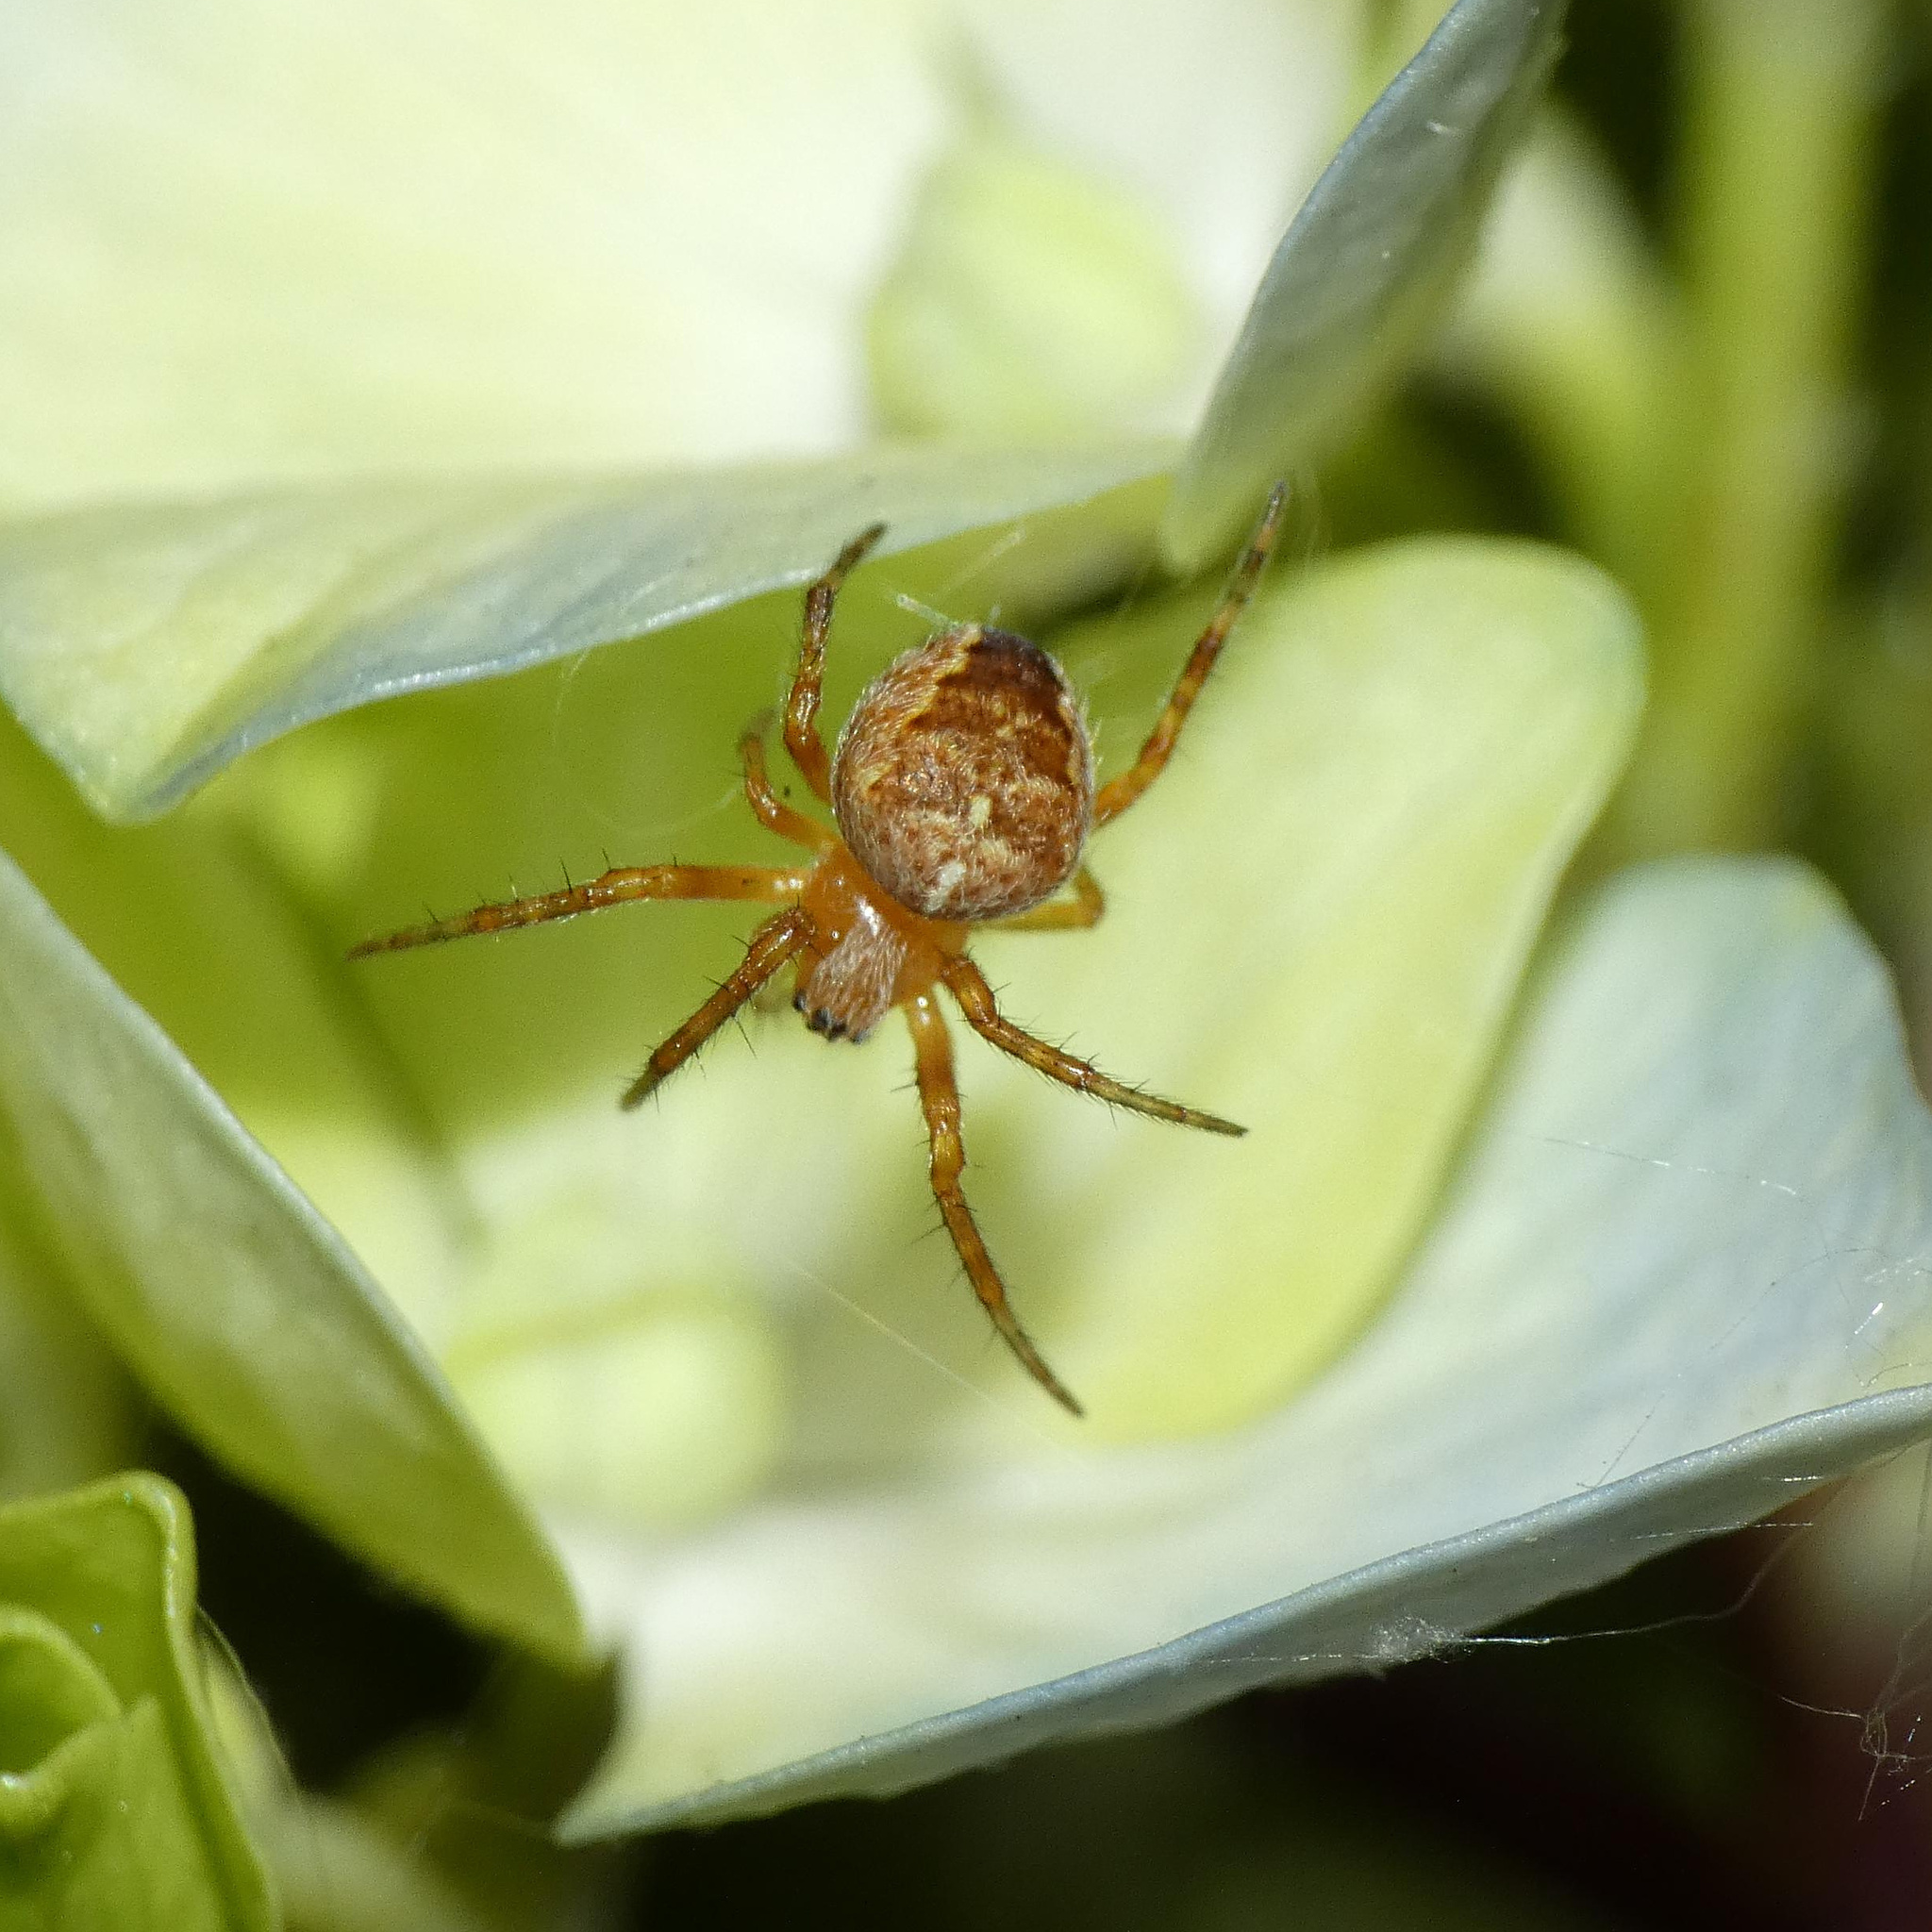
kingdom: Animalia
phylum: Arthropoda
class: Arachnida
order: Araneae
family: Araneidae
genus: Araneus
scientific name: Araneus diadematus
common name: Cross orbweaver
